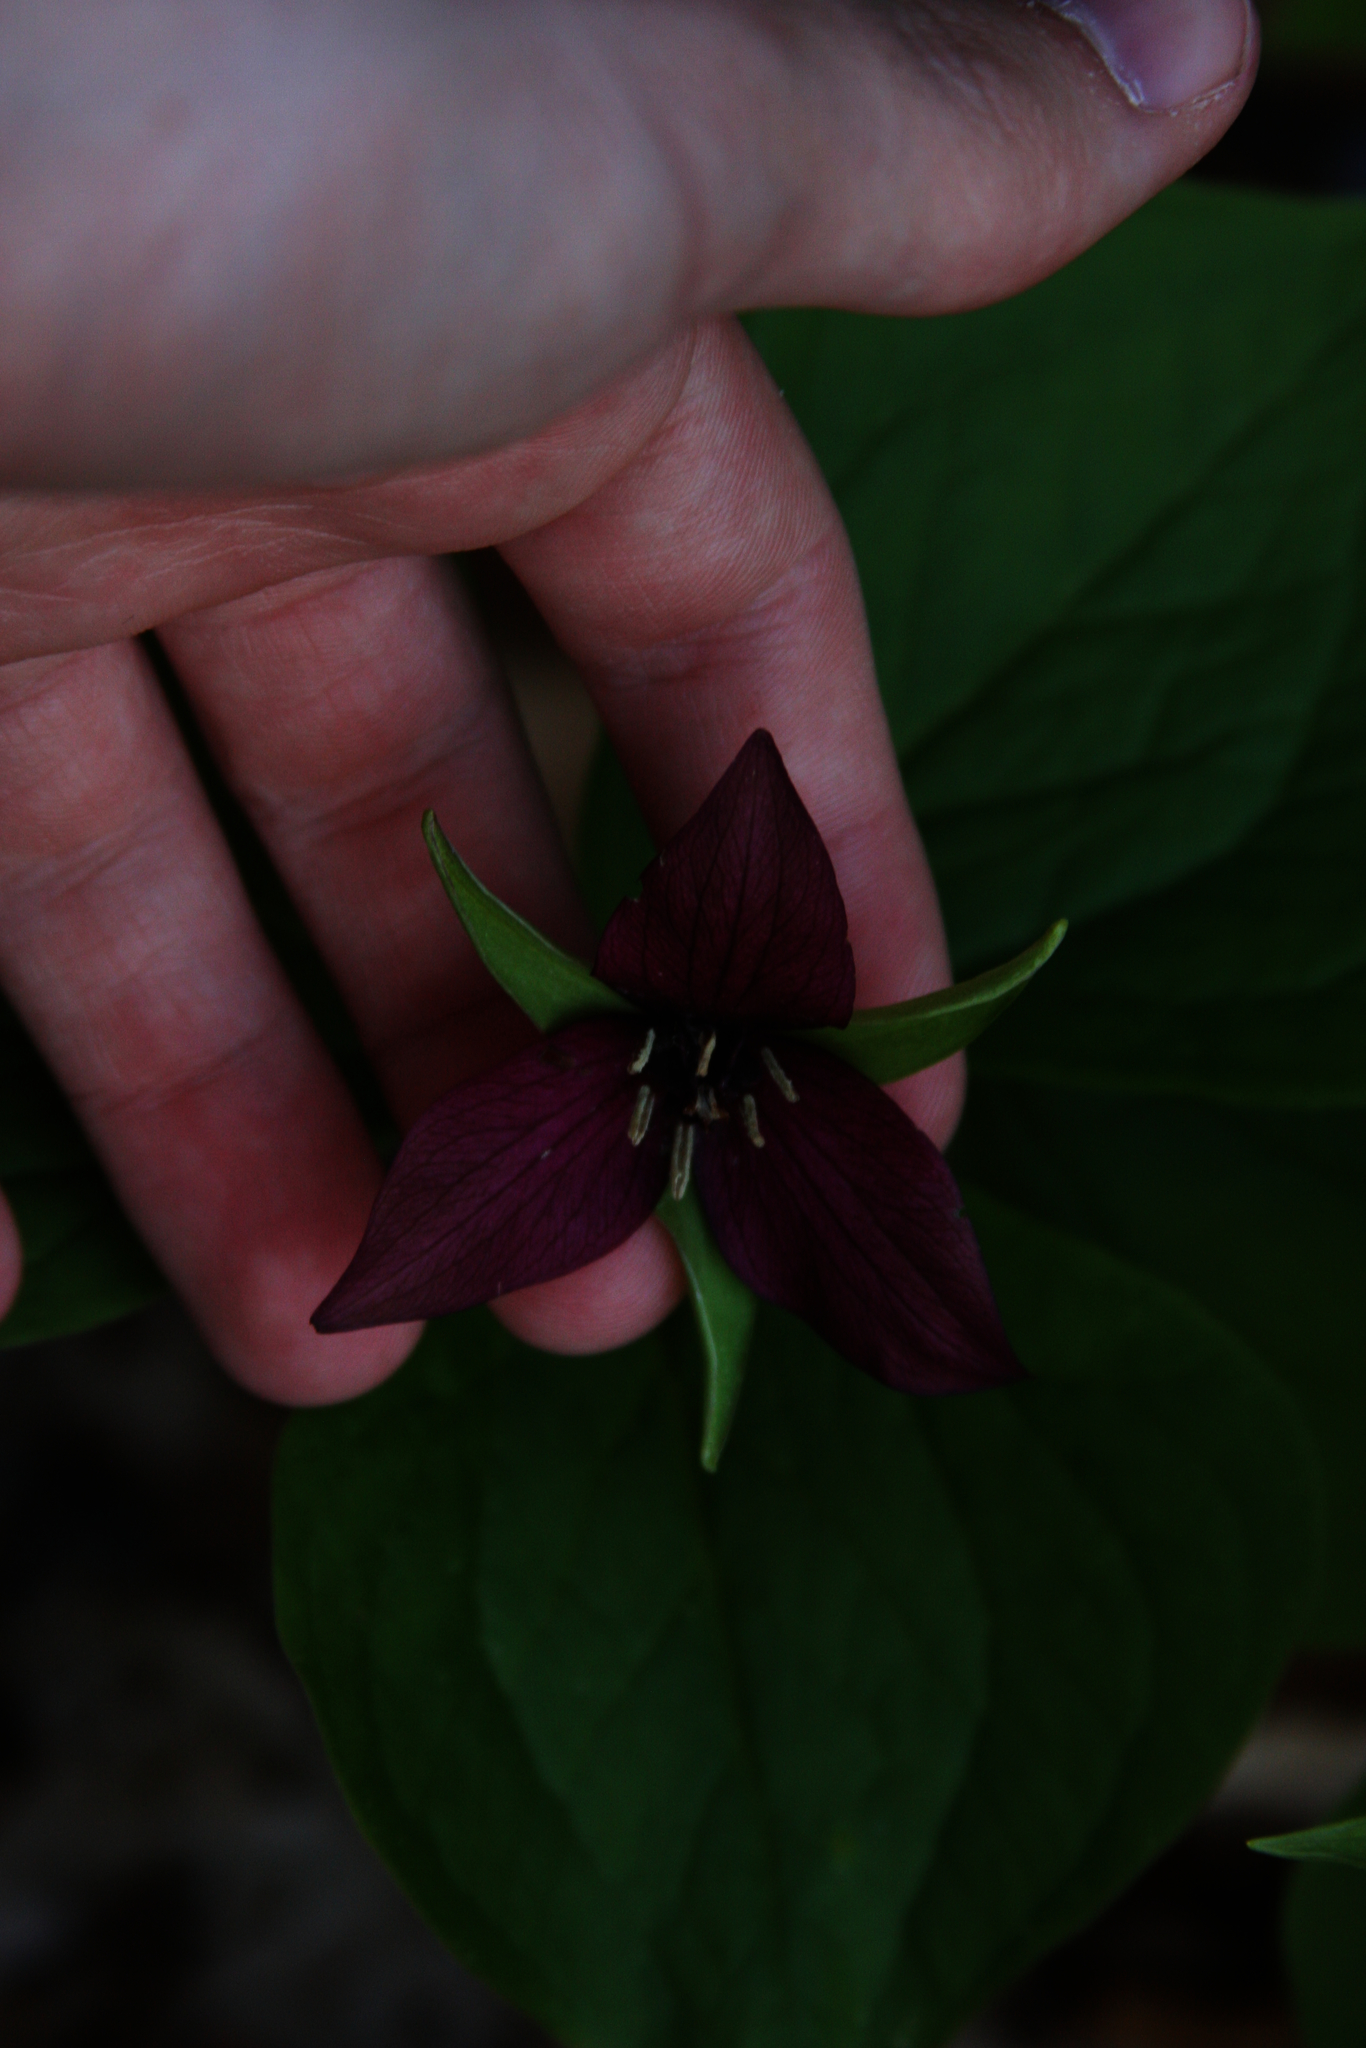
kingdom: Plantae
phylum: Tracheophyta
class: Liliopsida
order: Liliales
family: Melanthiaceae
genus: Trillium
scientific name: Trillium erectum
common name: Purple trillium
